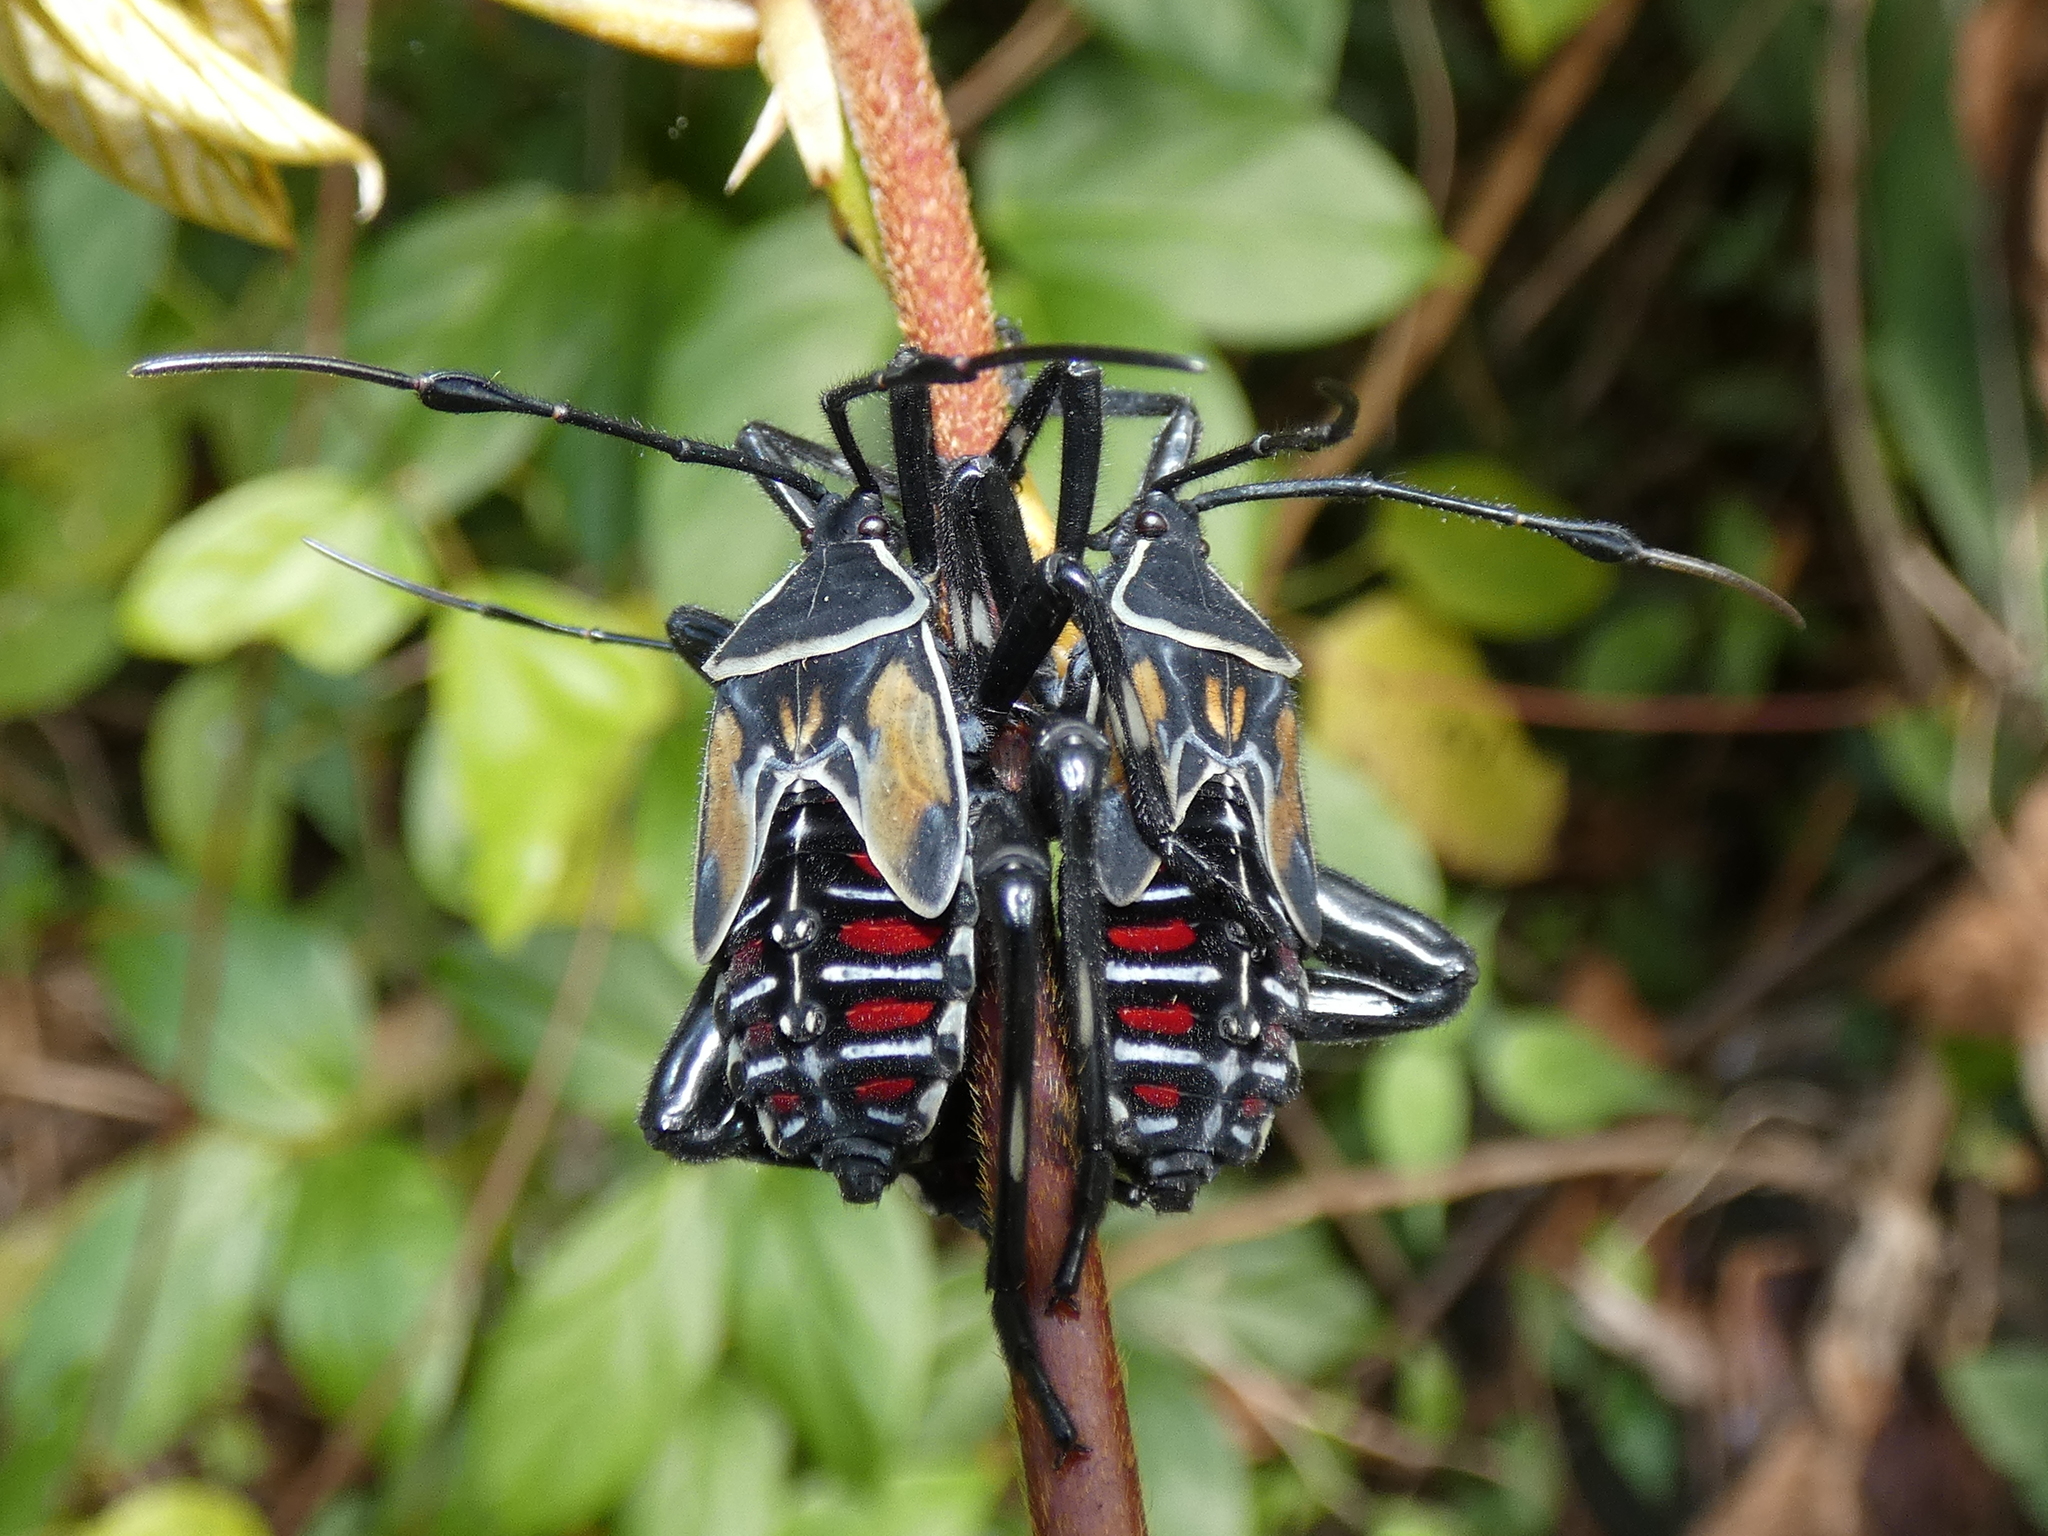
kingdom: Animalia
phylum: Arthropoda
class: Insecta
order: Hemiptera
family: Coreidae
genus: Thasus
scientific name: Thasus luteolus
